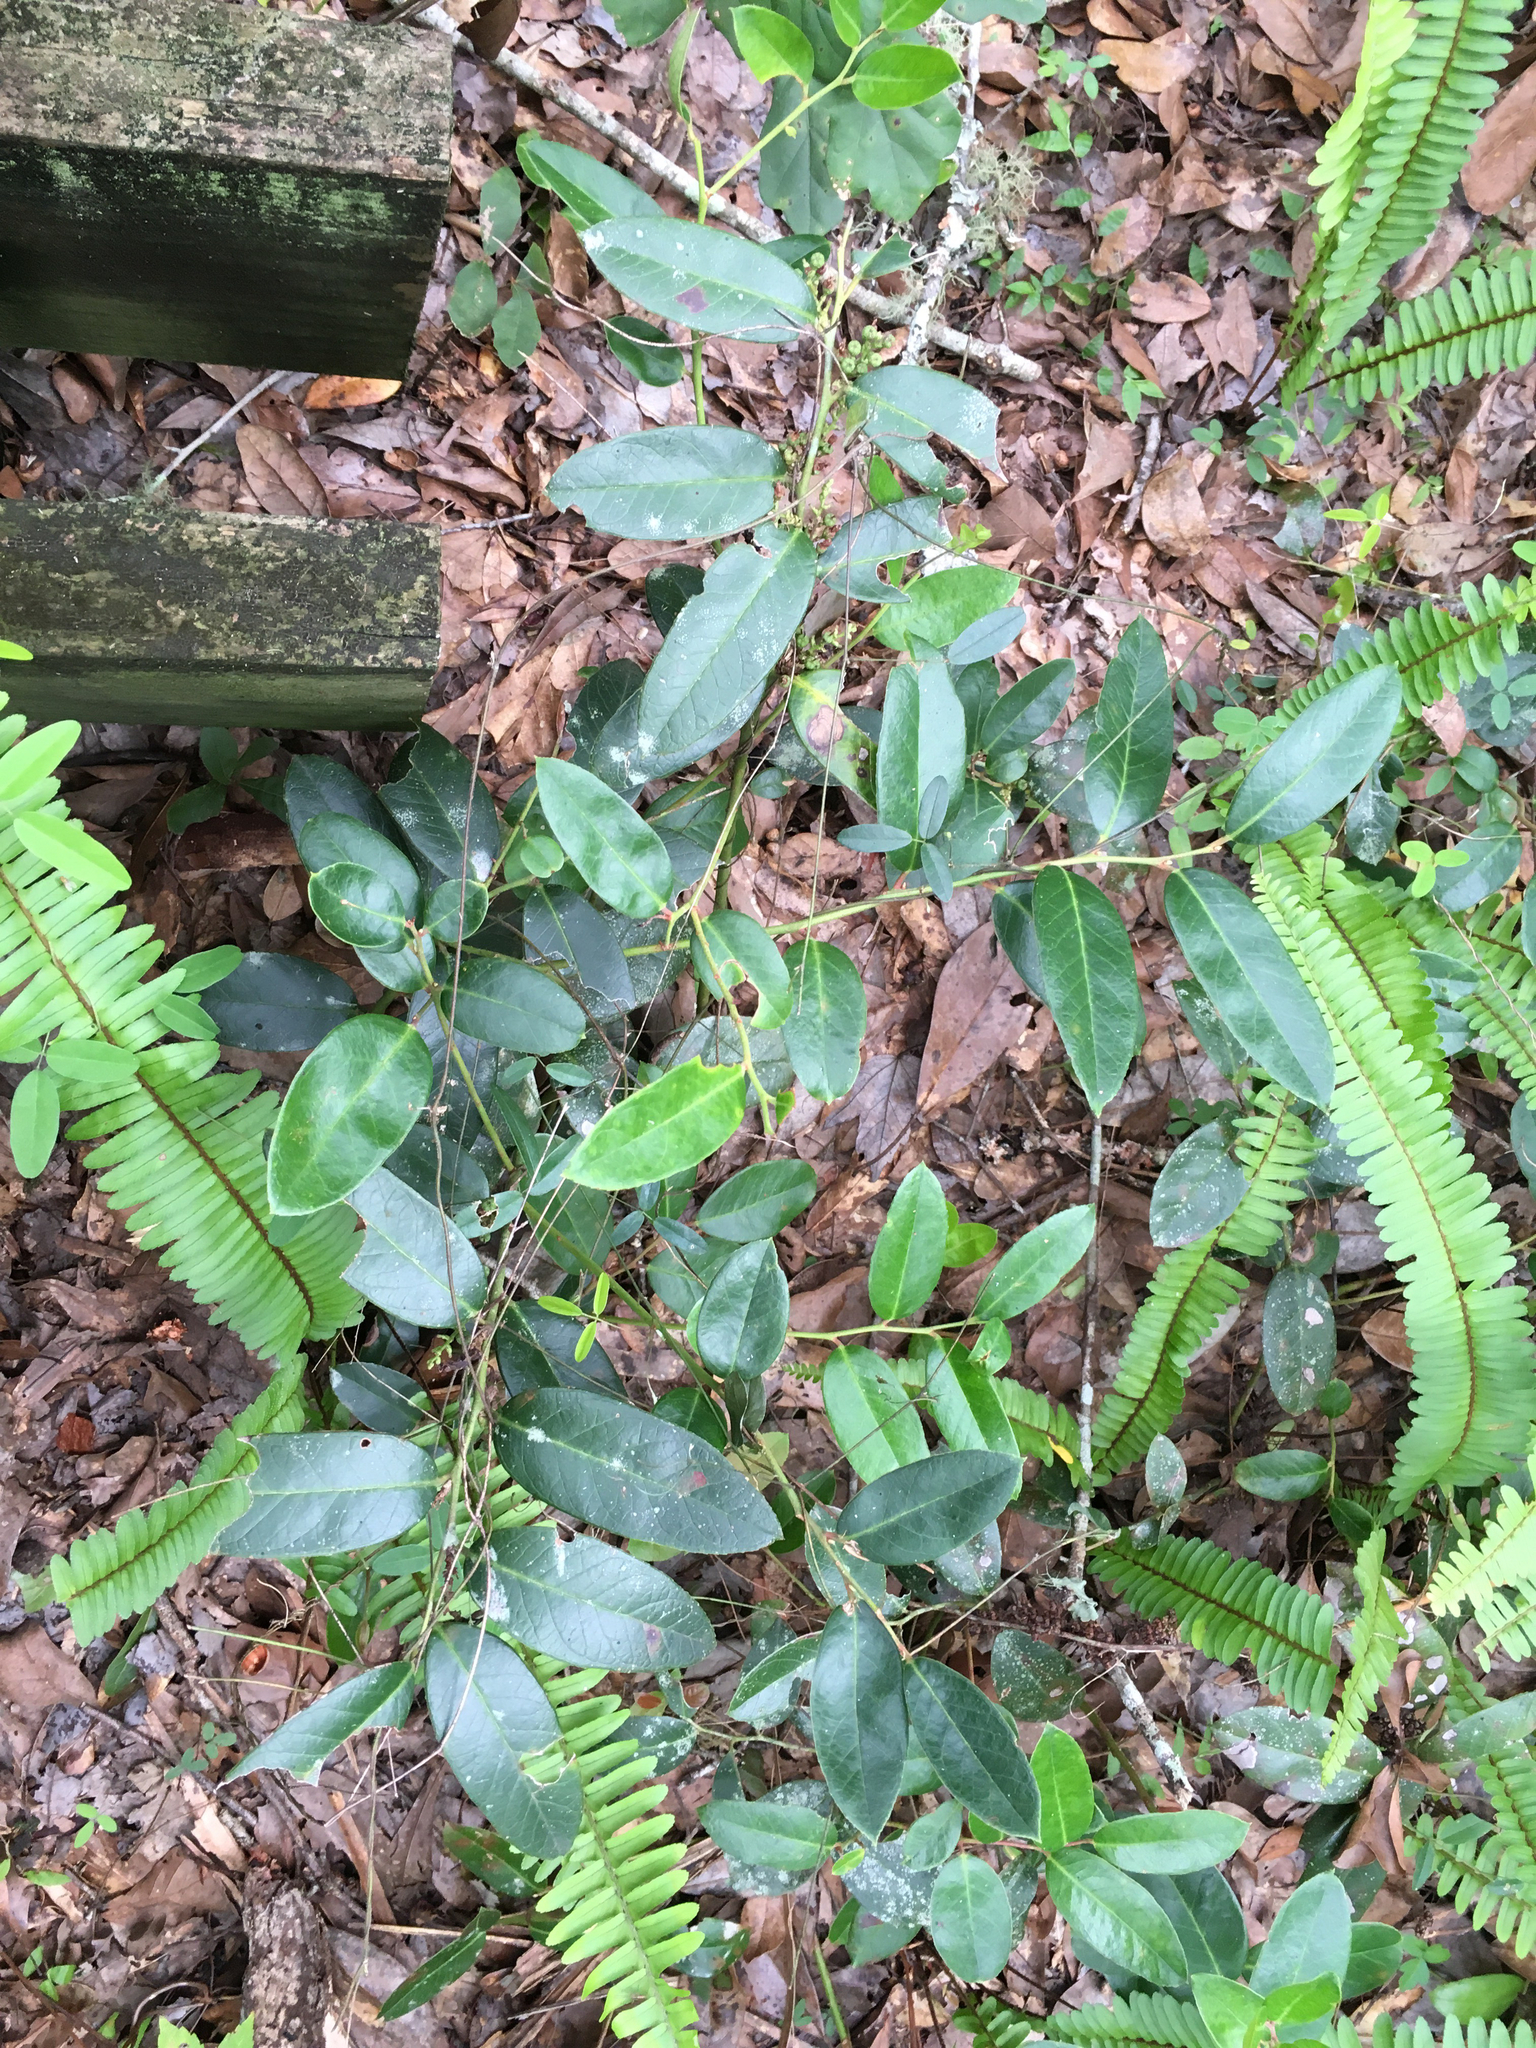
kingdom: Plantae
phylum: Tracheophyta
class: Magnoliopsida
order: Ericales
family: Ericaceae
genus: Leucothoe
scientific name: Leucothoe axillaris
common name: Leucothoe
